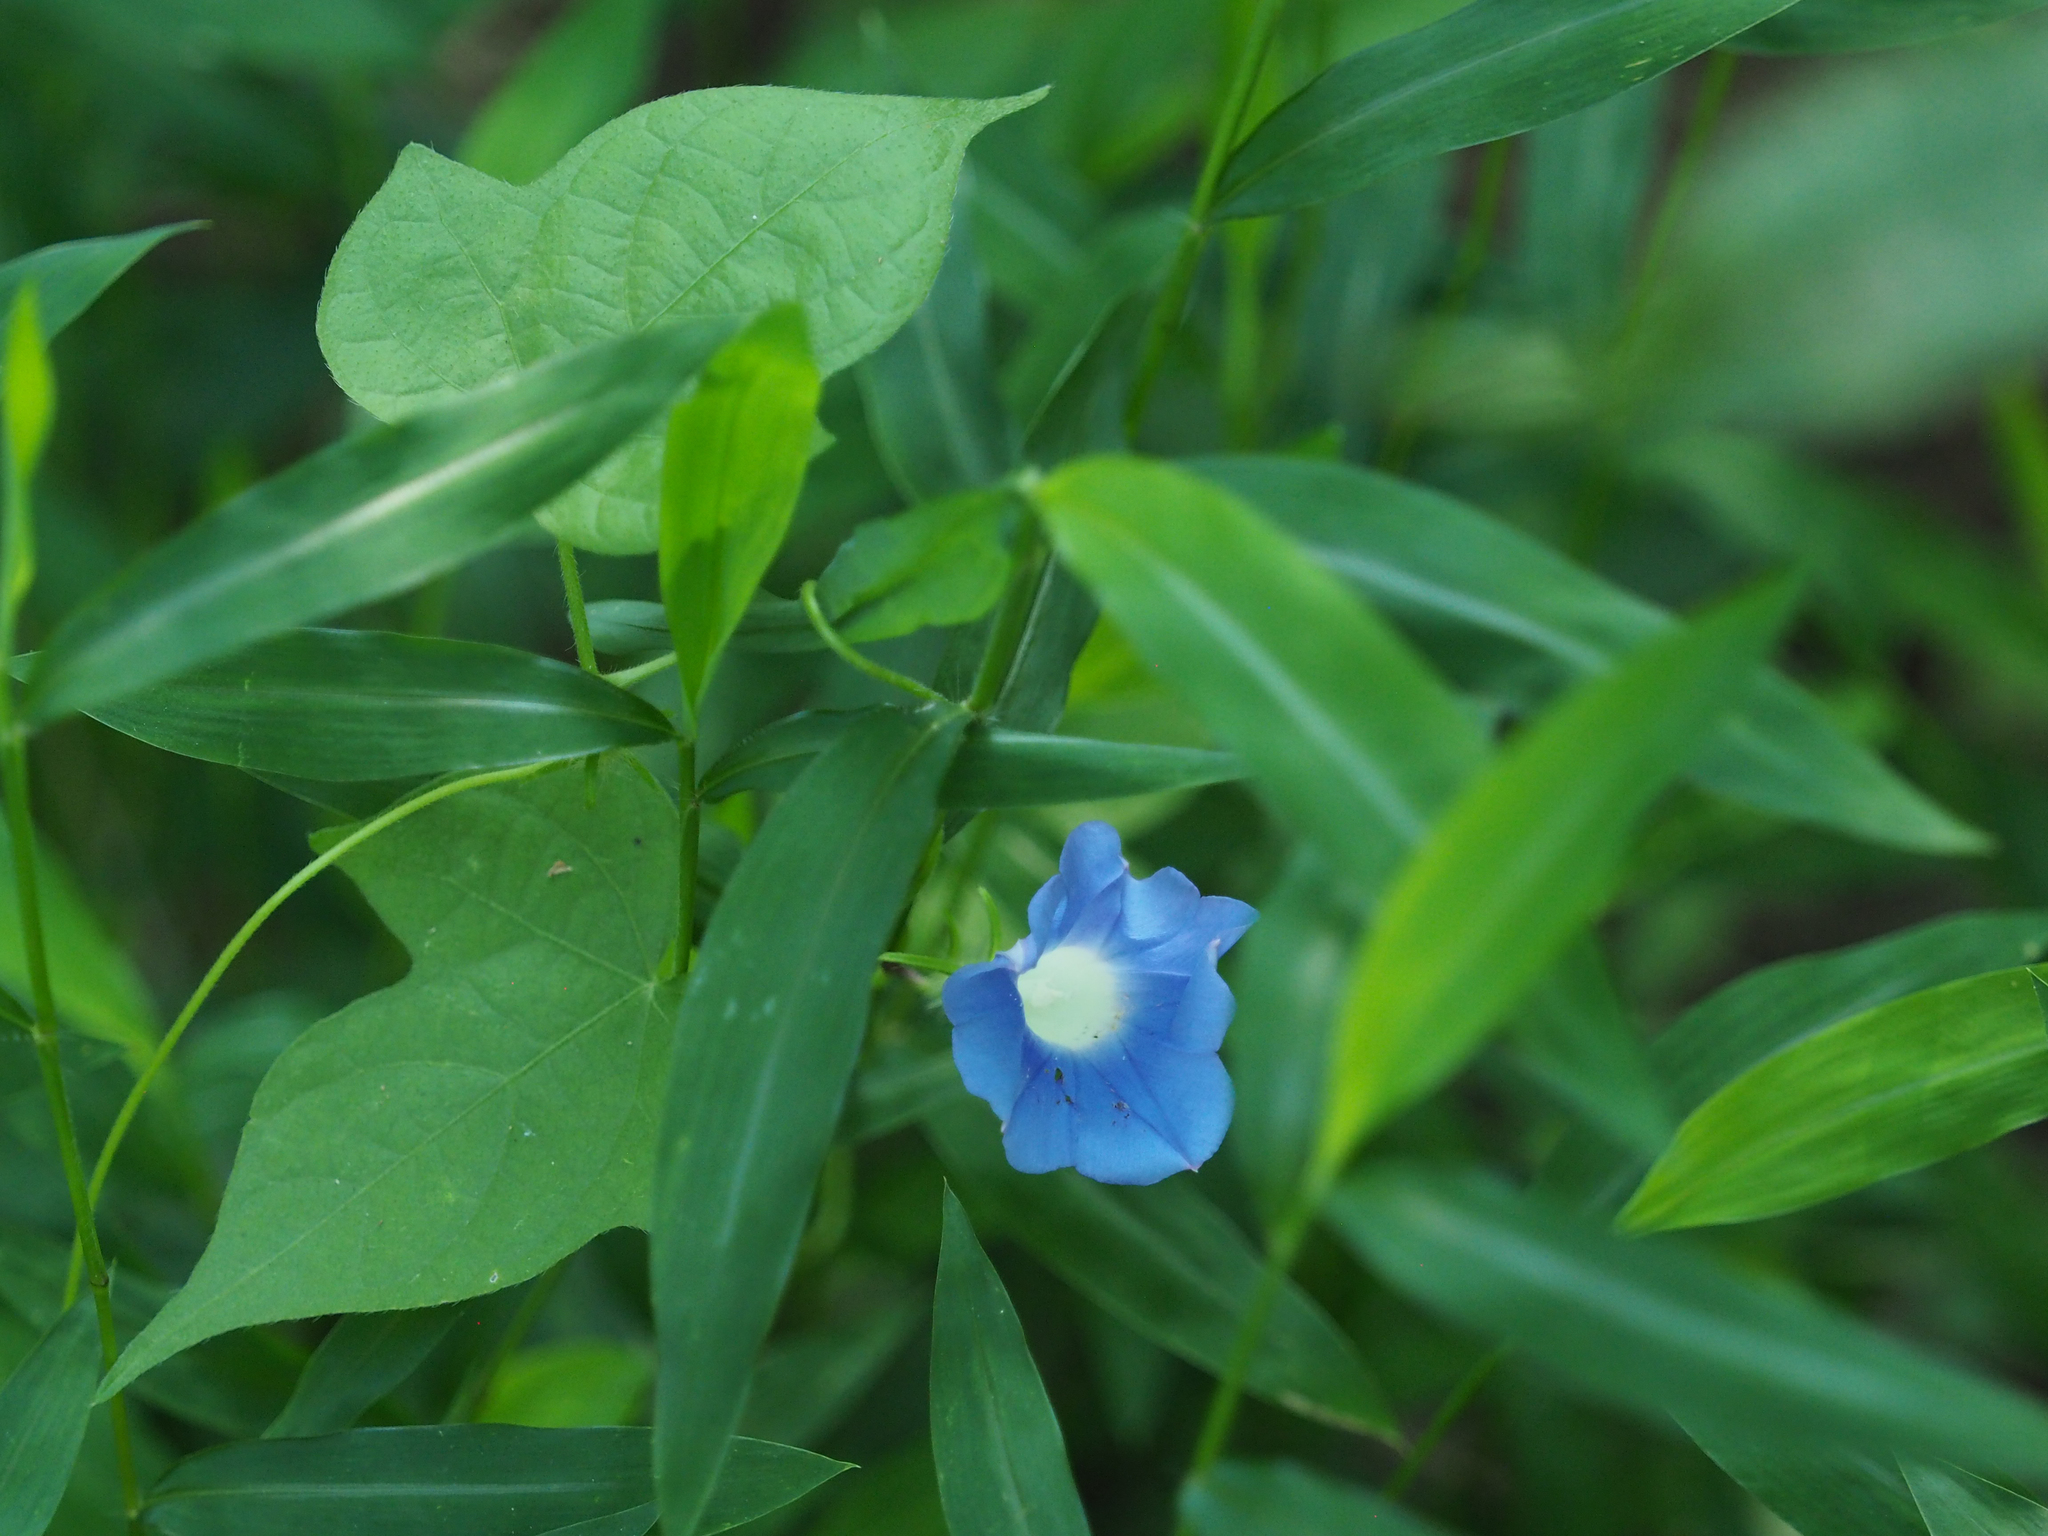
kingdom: Plantae
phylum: Tracheophyta
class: Magnoliopsida
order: Solanales
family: Convolvulaceae
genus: Ipomoea
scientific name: Ipomoea hederacea
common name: Ivy-leaved morning-glory
